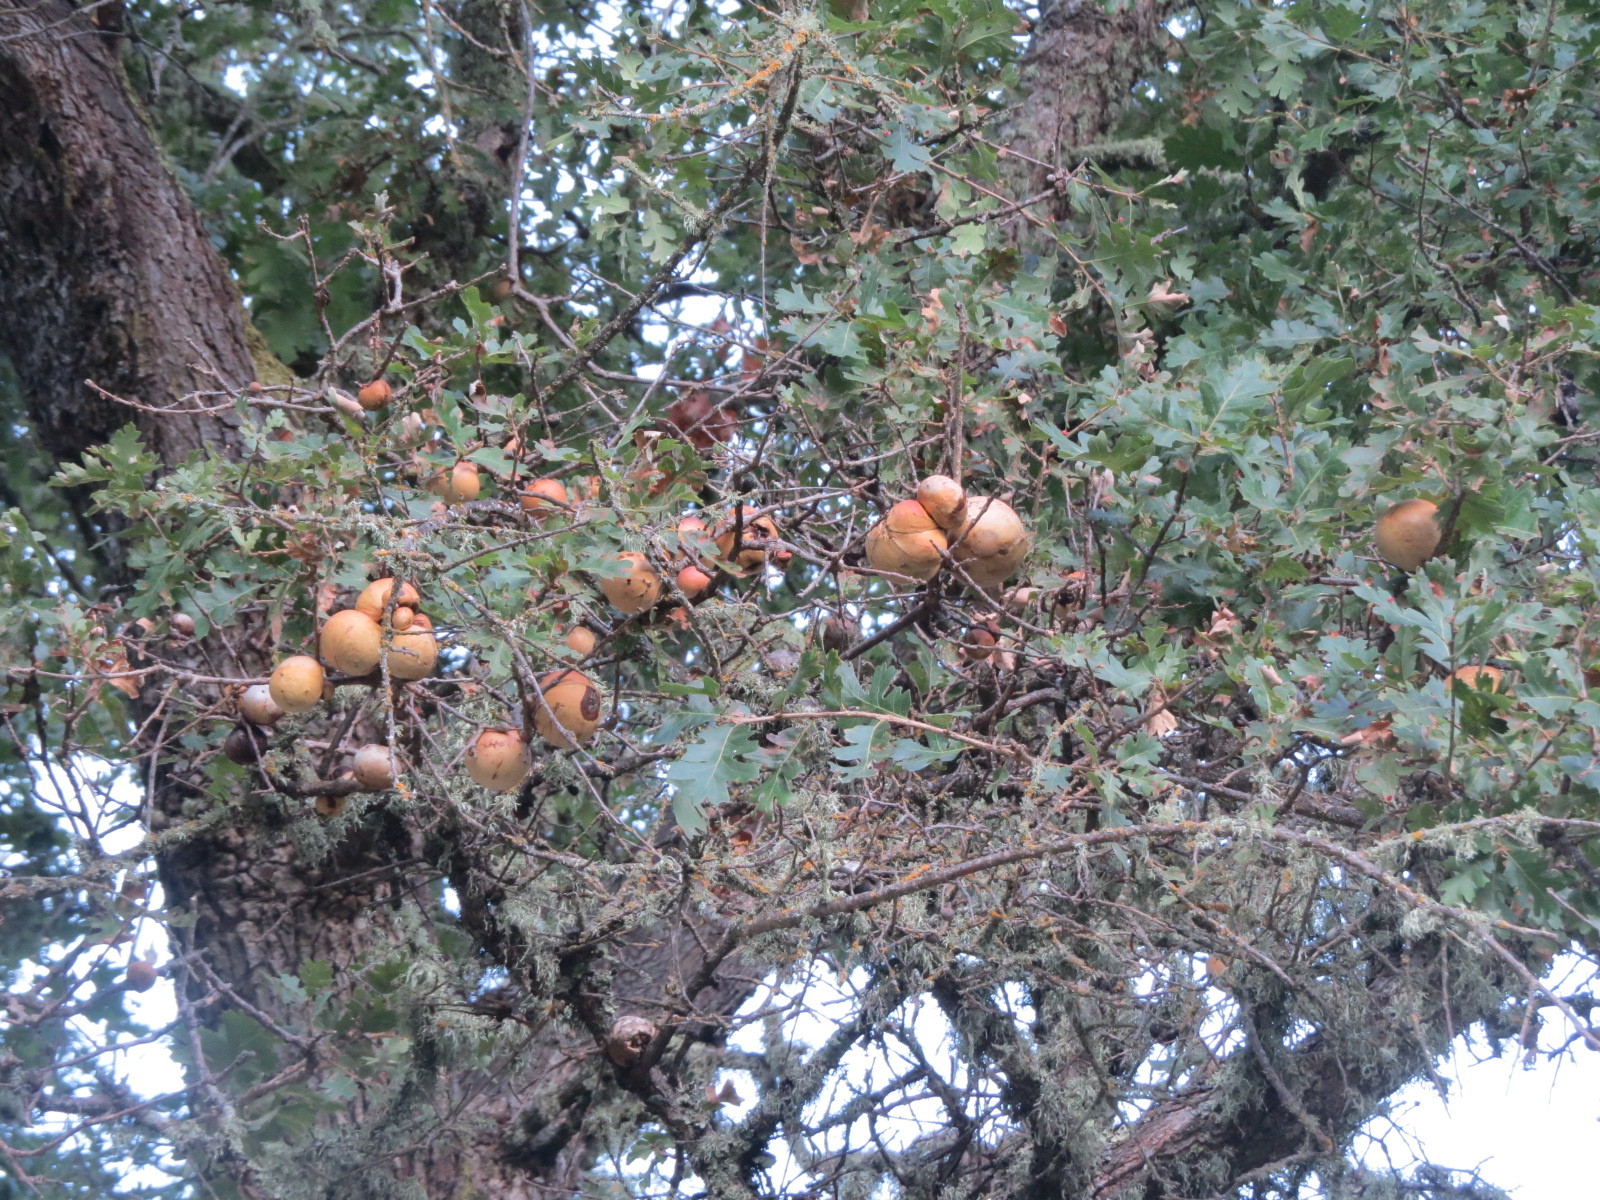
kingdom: Animalia
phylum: Arthropoda
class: Insecta
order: Hymenoptera
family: Cynipidae
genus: Andricus
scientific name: Andricus quercuscalifornicus
